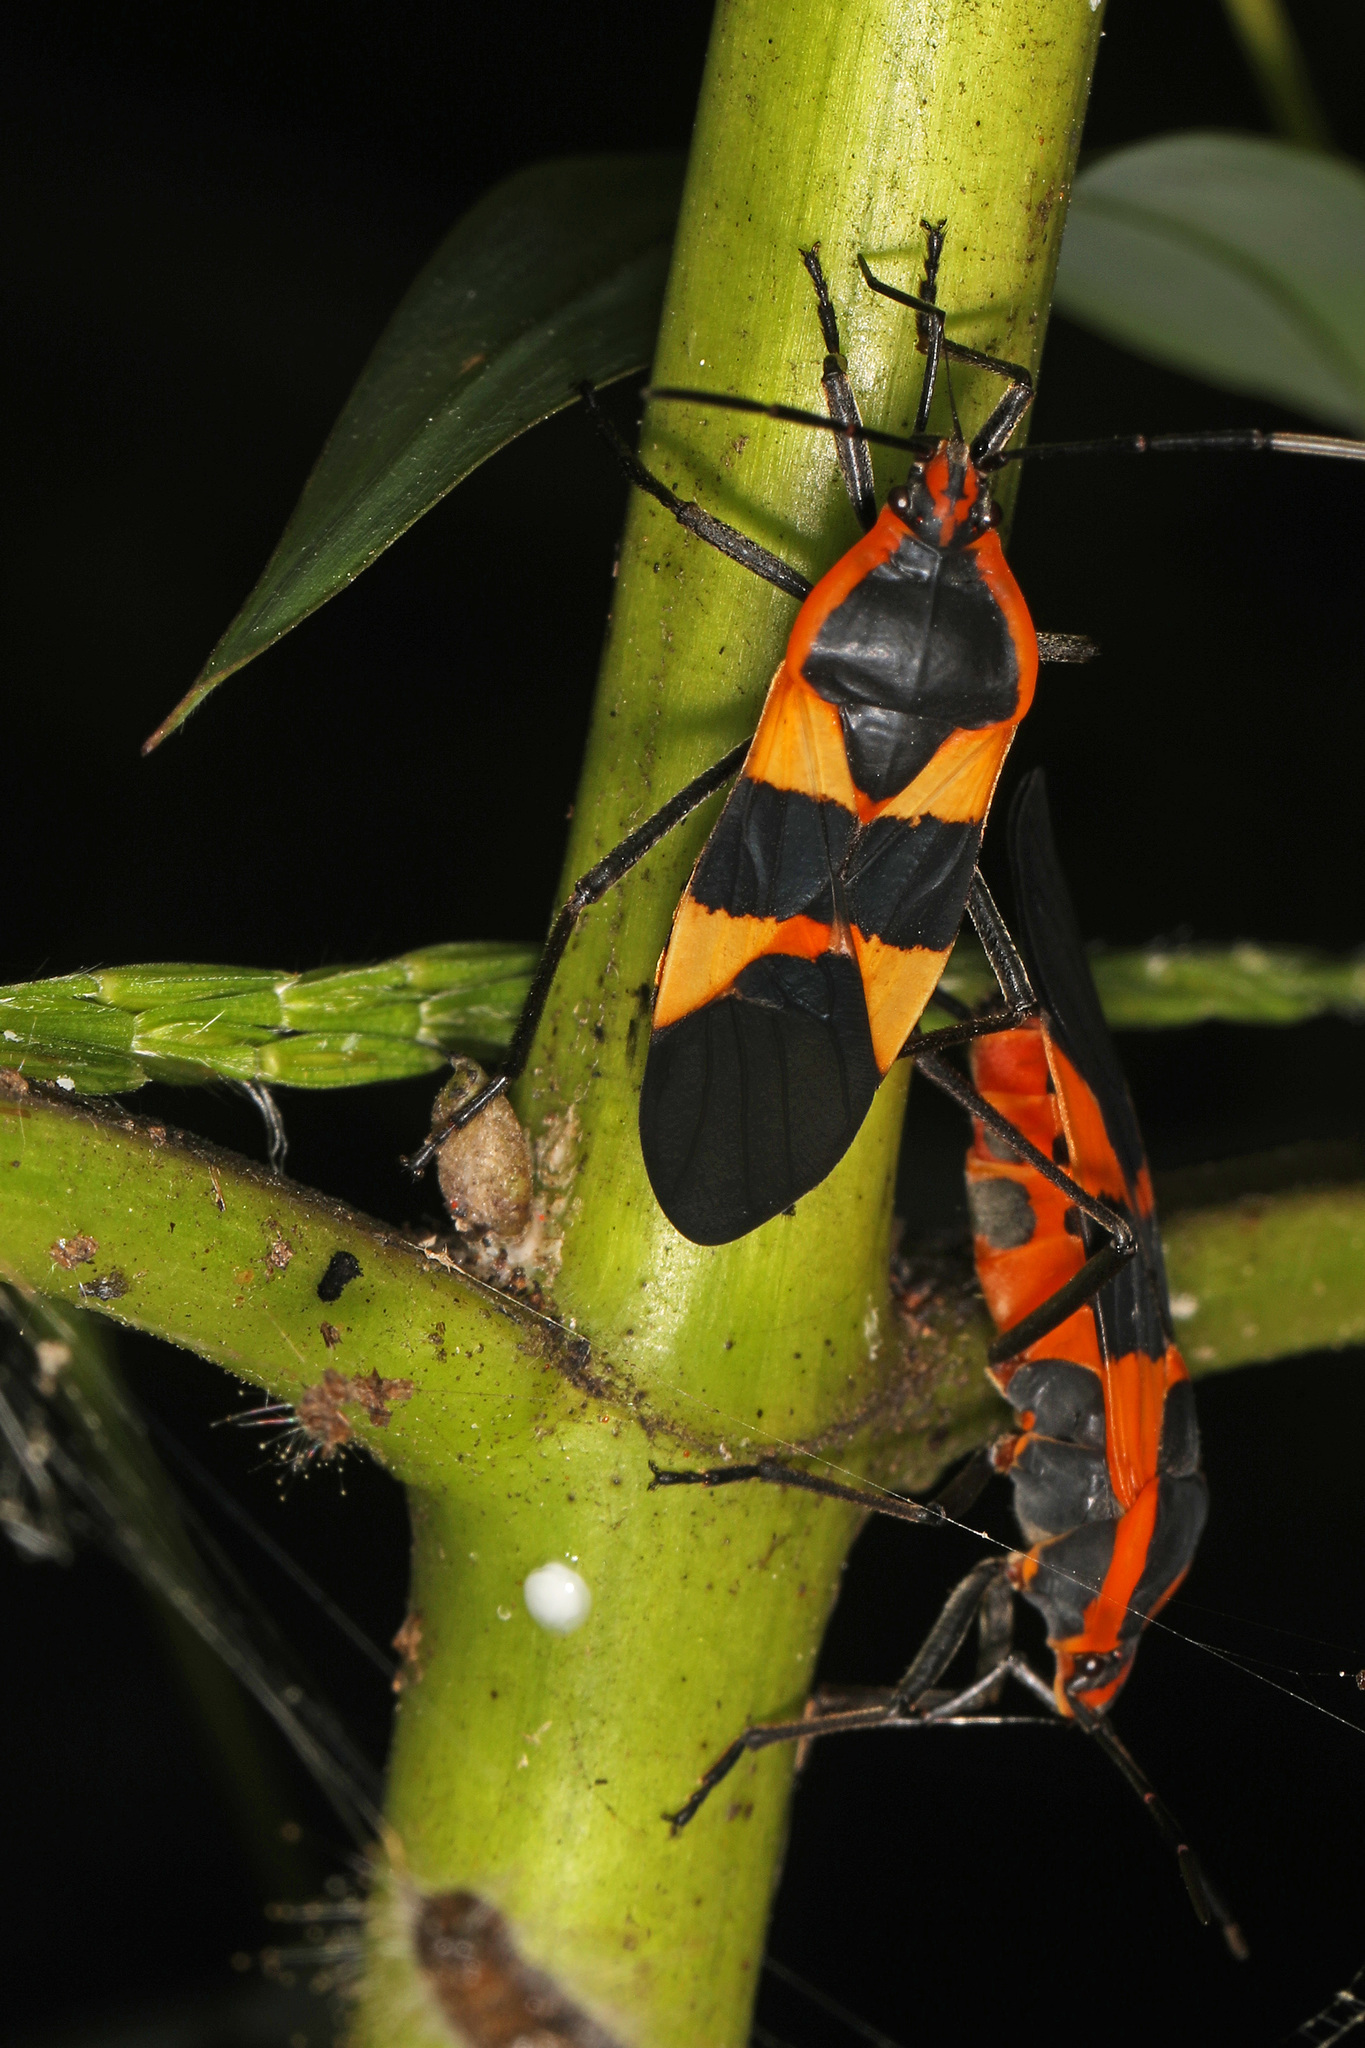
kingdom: Animalia
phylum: Arthropoda
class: Insecta
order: Hemiptera
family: Lygaeidae
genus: Oncopeltus
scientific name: Oncopeltus fasciatus
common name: Large milkweed bug
